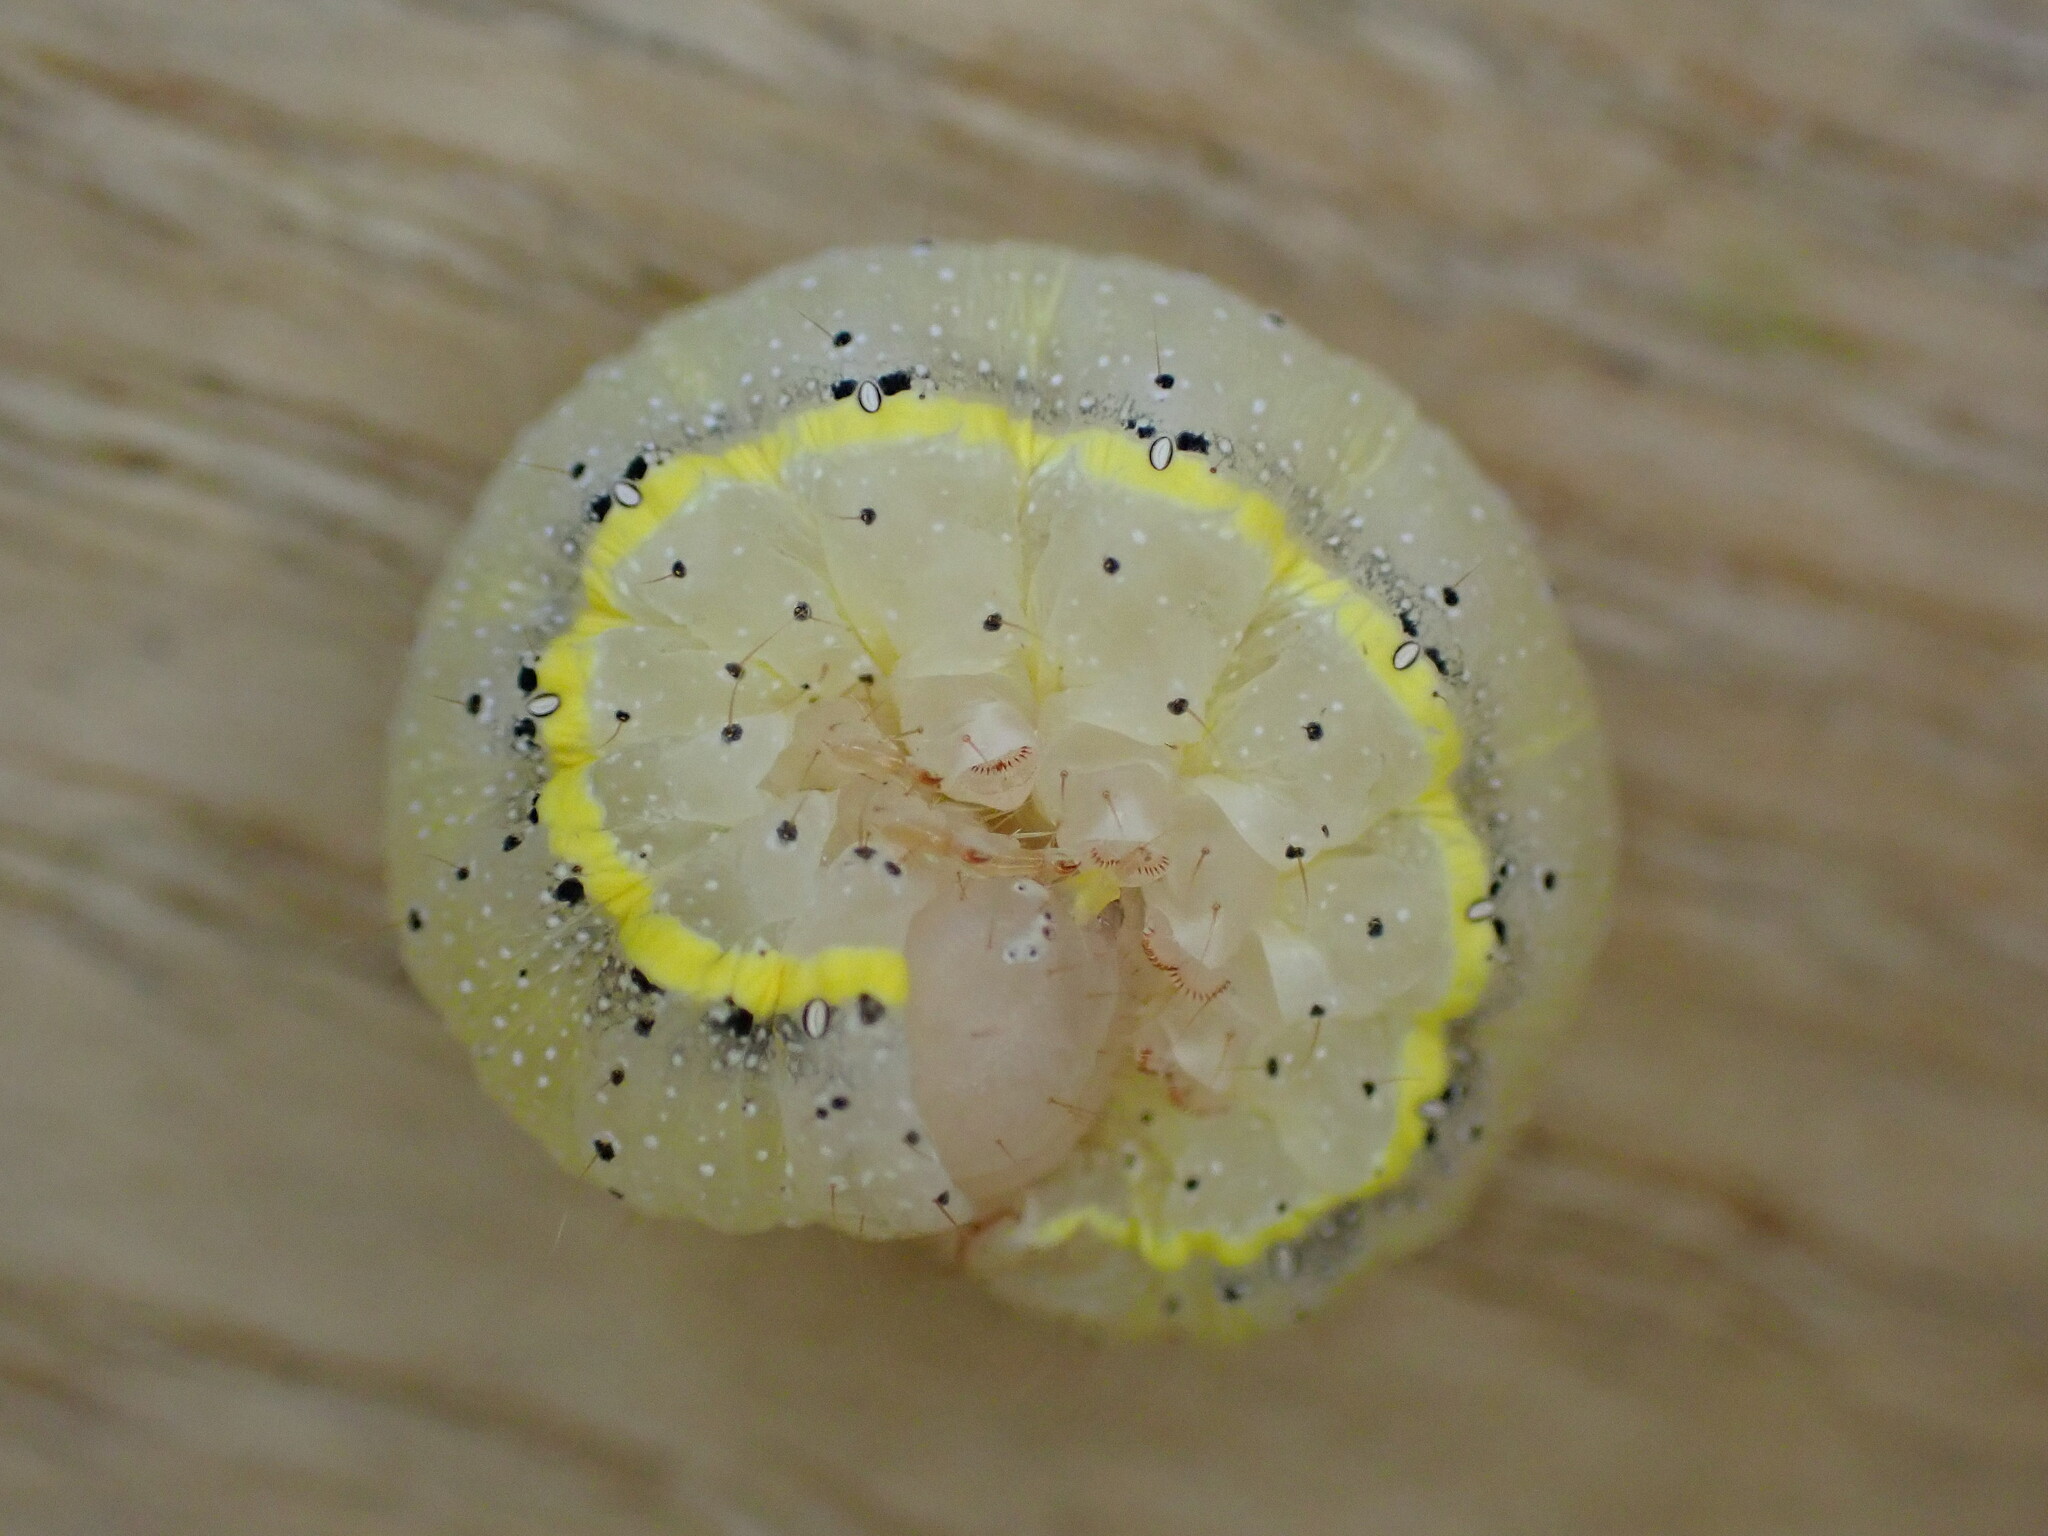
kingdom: Animalia
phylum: Arthropoda
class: Insecta
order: Lepidoptera
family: Noctuidae
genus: Lacanobia
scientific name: Lacanobia oleracea
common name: Bright-line brown-eye
